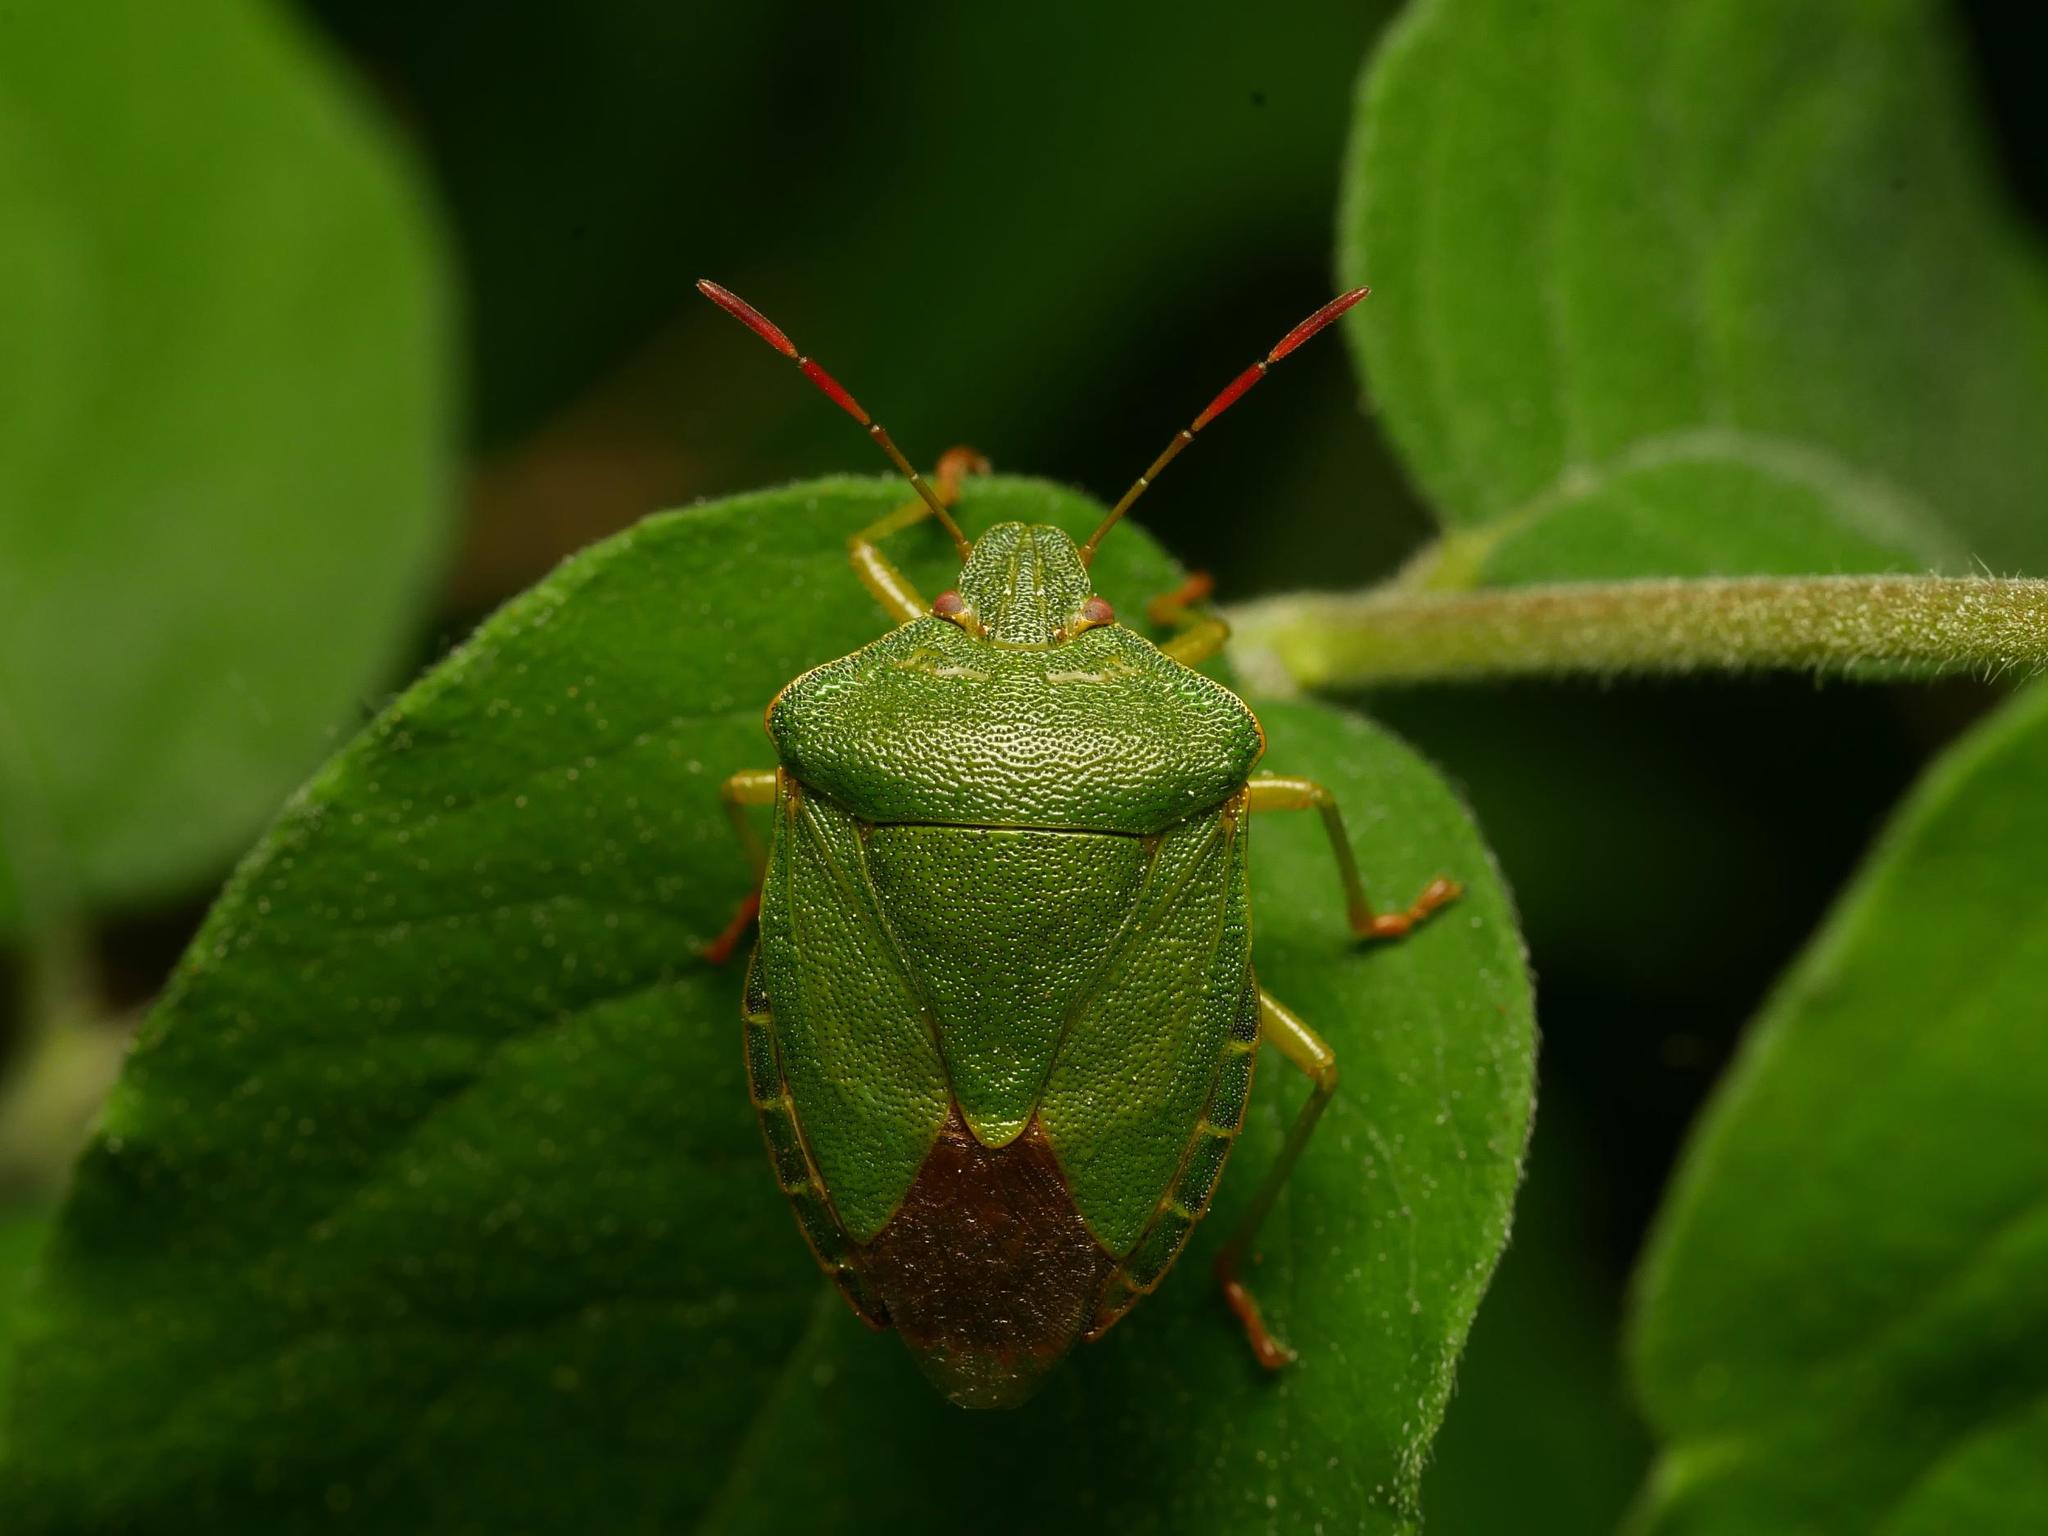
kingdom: Animalia
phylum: Arthropoda
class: Insecta
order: Hemiptera
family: Pentatomidae
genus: Palomena
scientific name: Palomena prasina
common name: Green shieldbug
